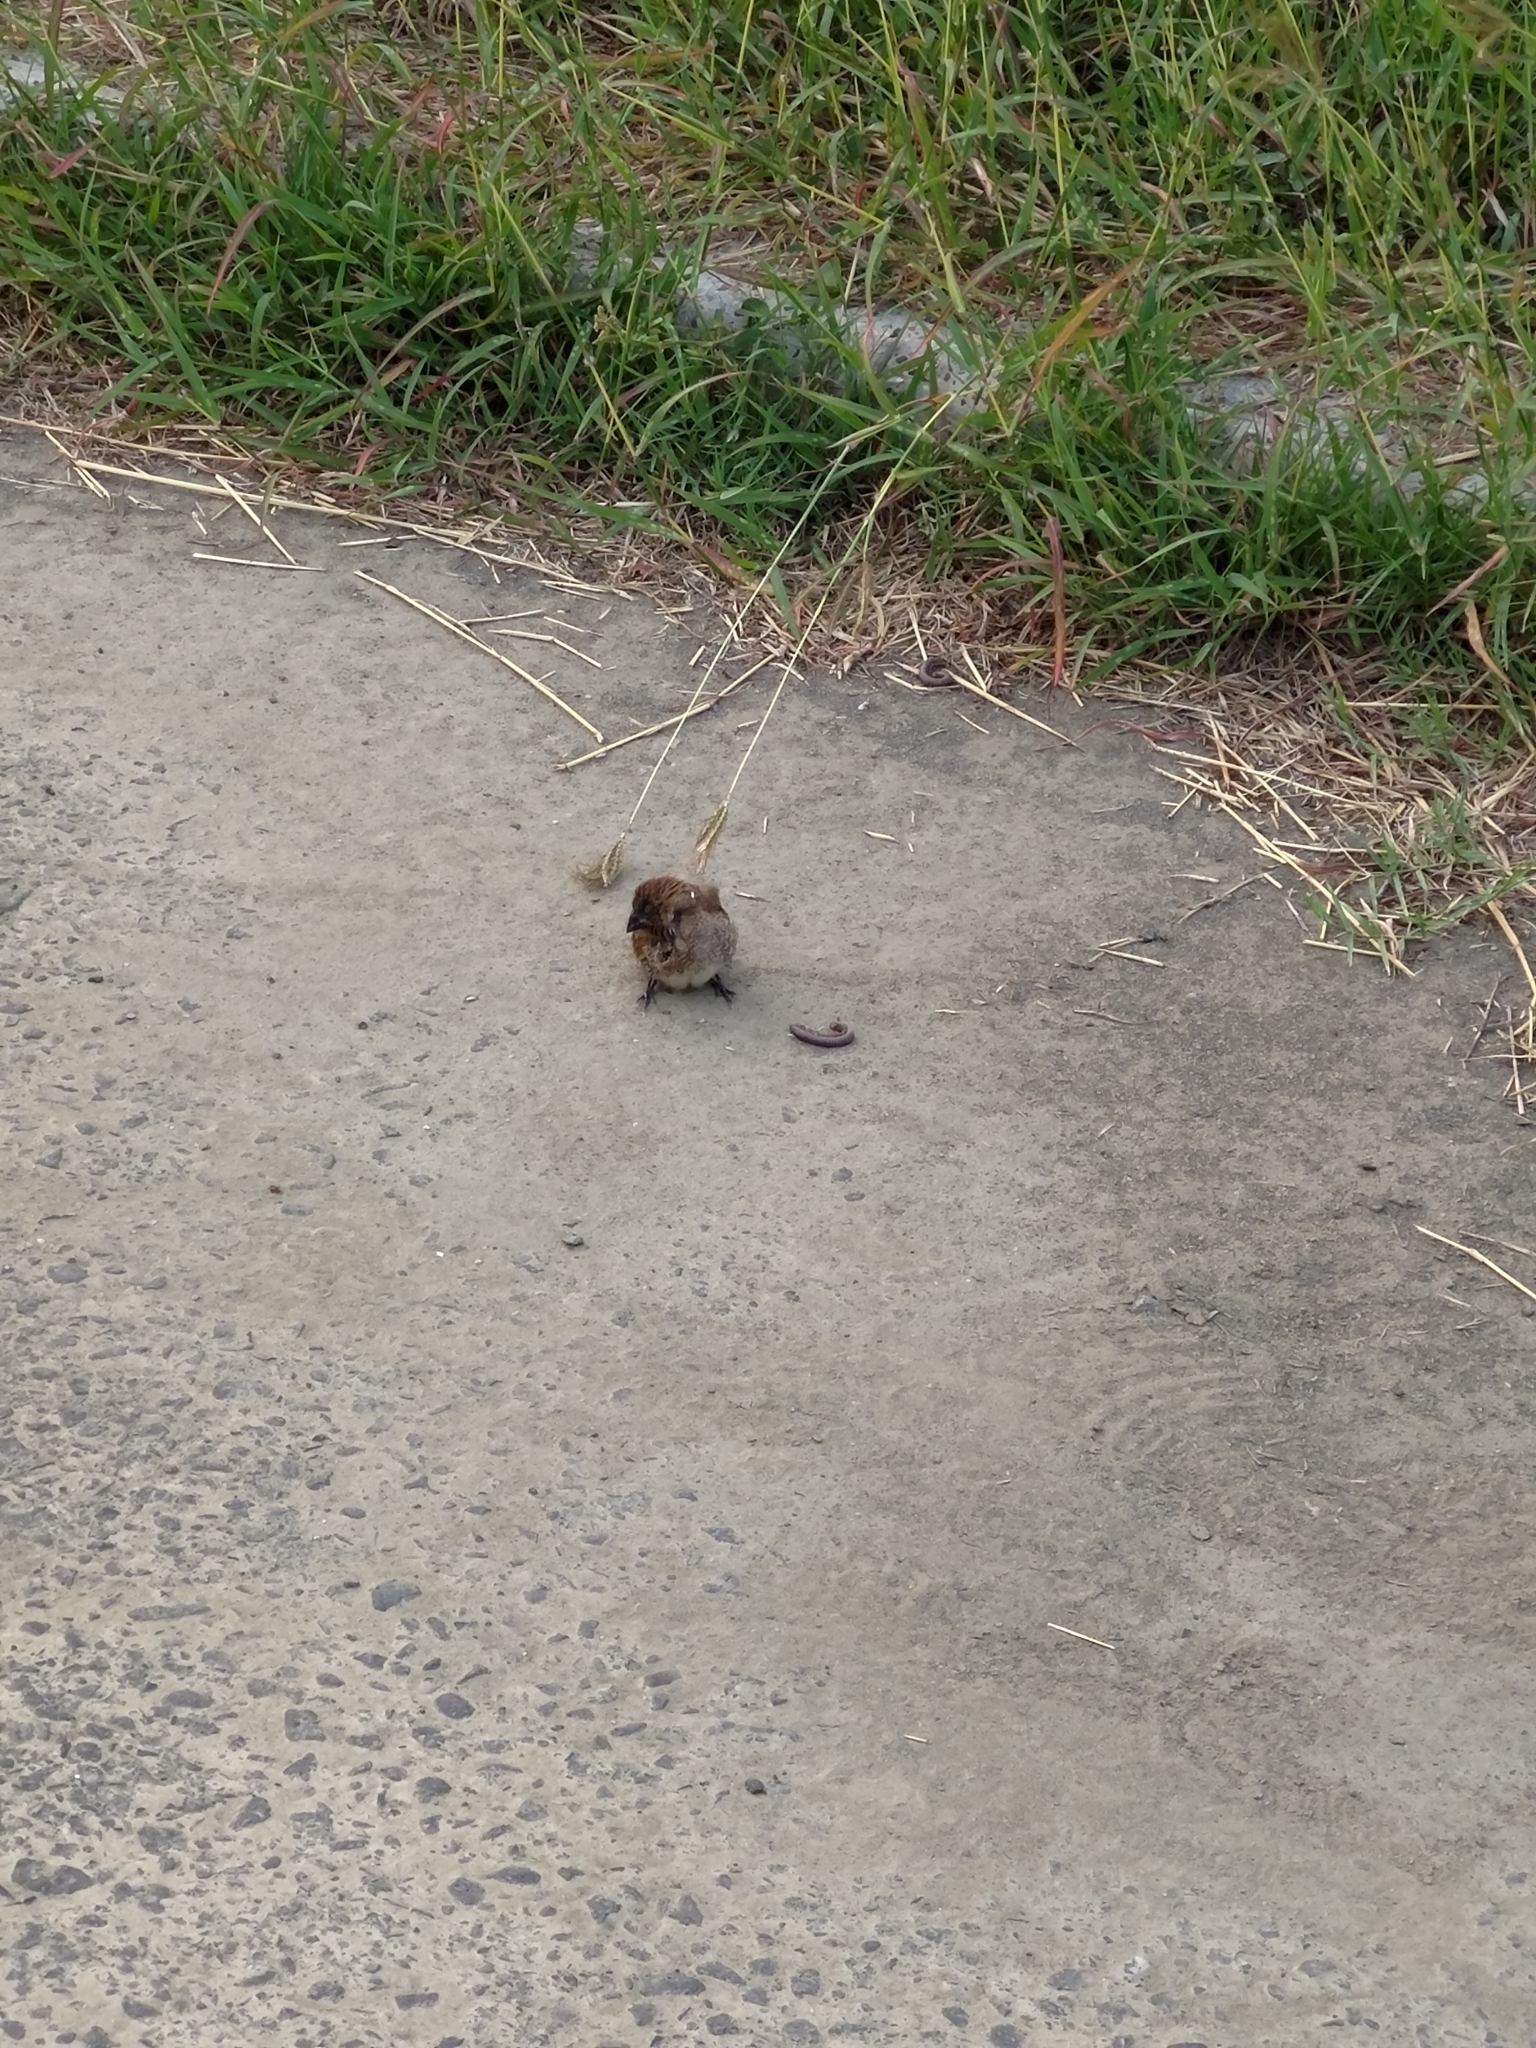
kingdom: Animalia
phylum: Chordata
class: Aves
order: Passeriformes
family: Estrildidae
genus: Lonchura
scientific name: Lonchura punctulata
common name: Scaly-breasted munia
